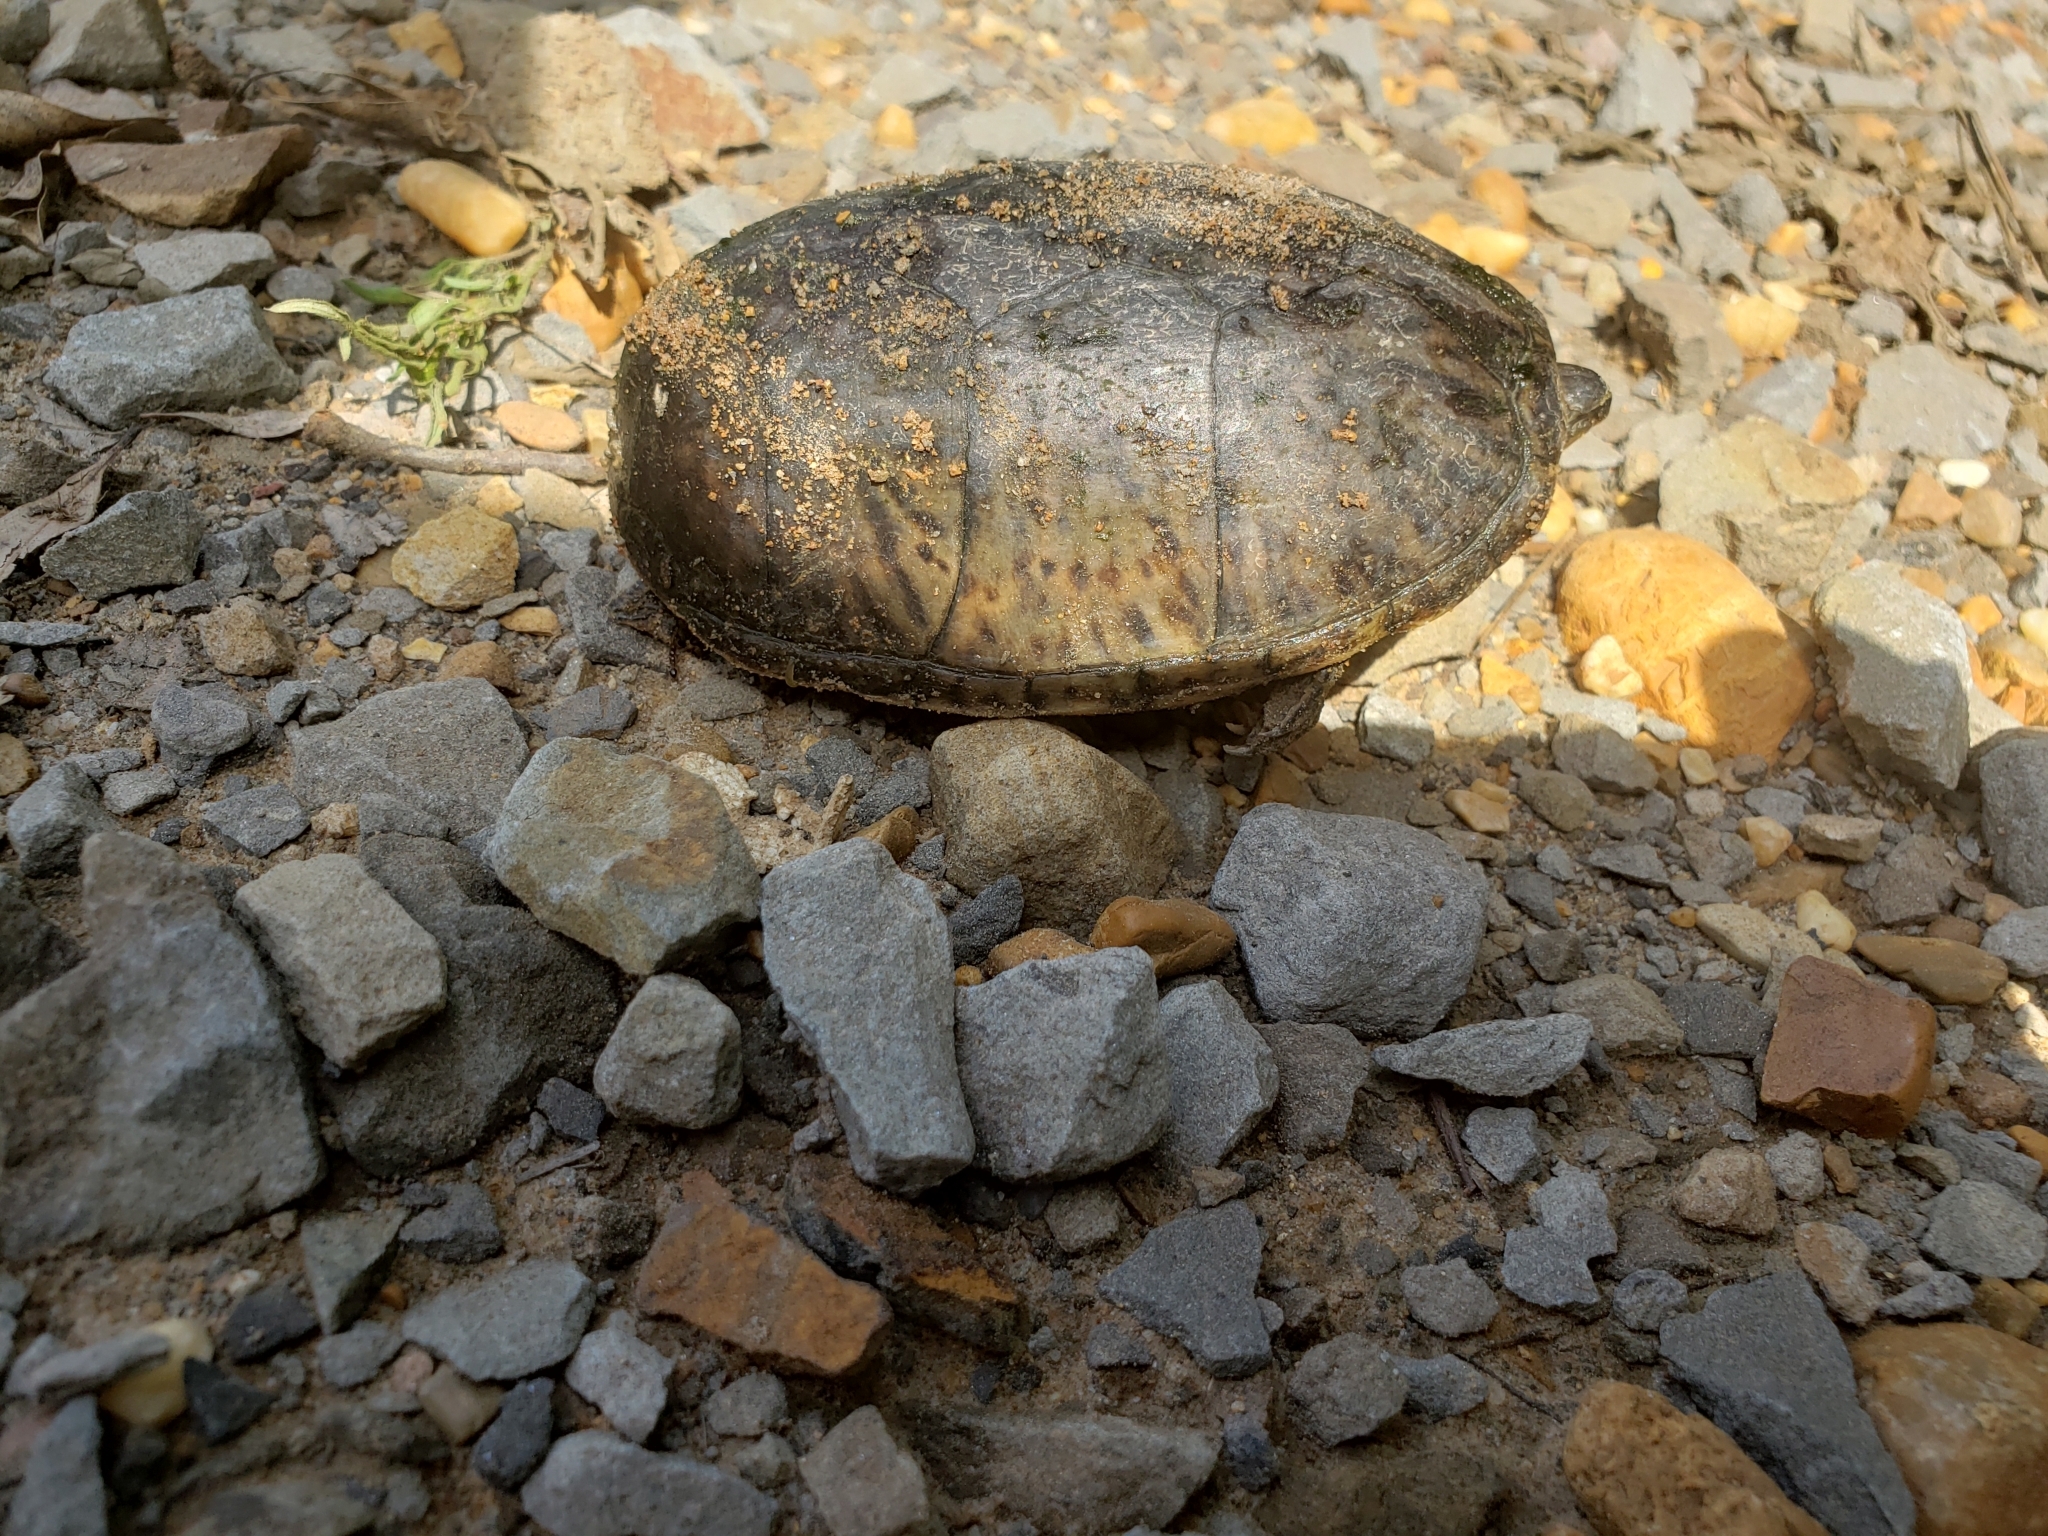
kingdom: Animalia
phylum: Chordata
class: Testudines
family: Kinosternidae
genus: Sternotherus
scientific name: Sternotherus odoratus
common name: Common musk turtle
